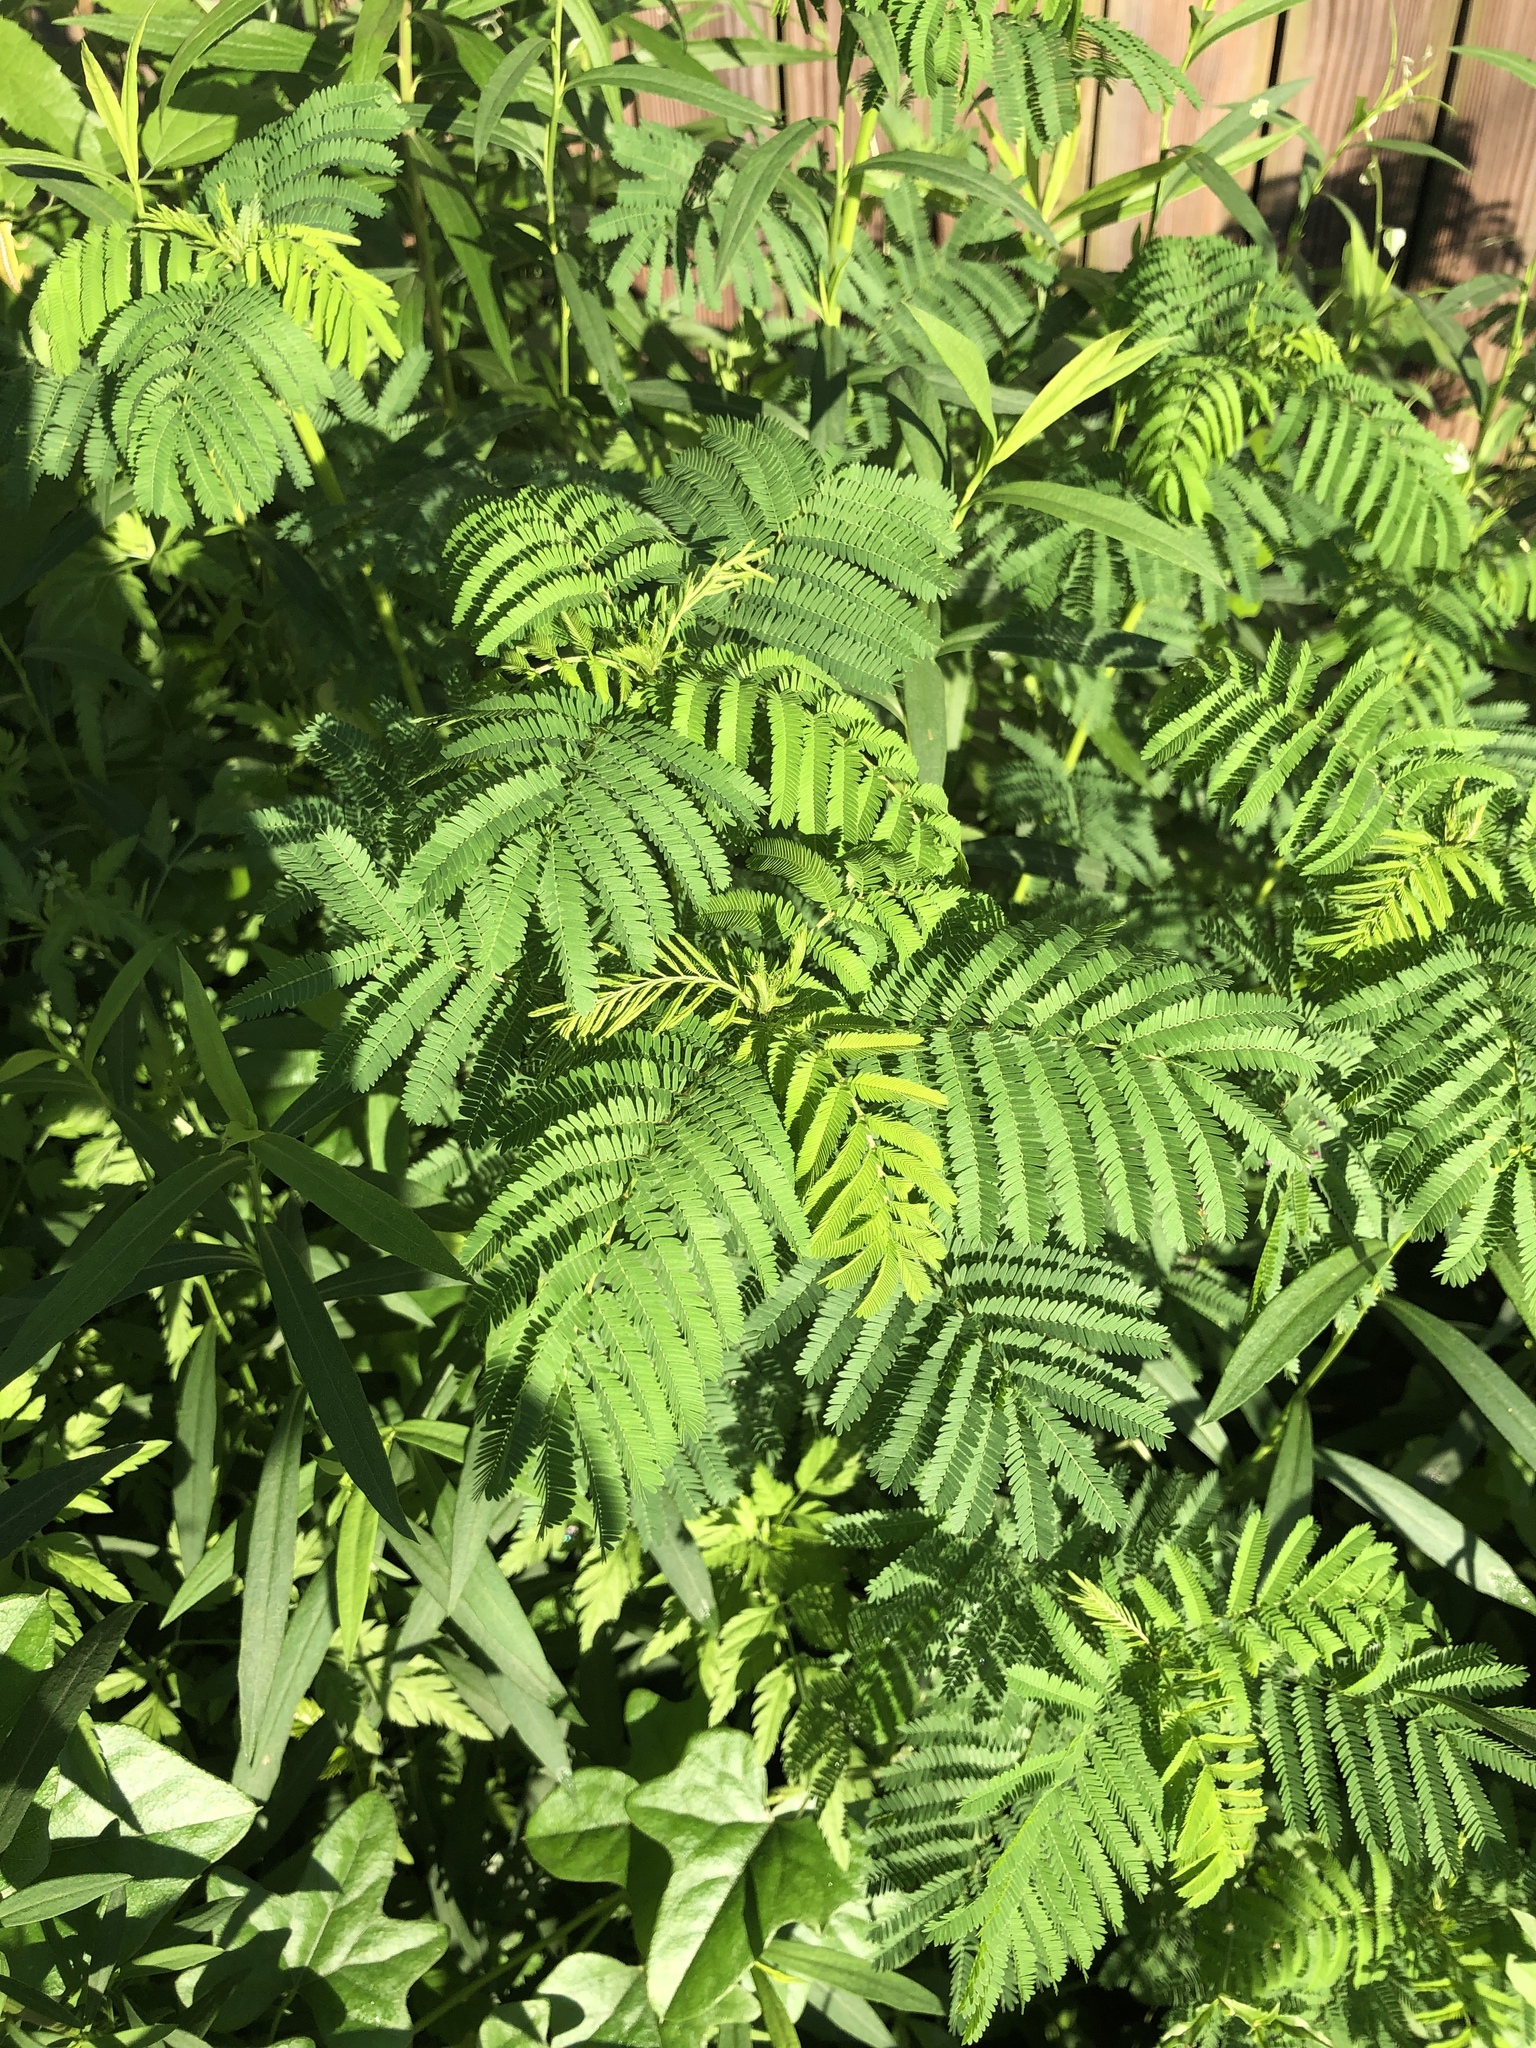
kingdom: Plantae
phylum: Tracheophyta
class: Magnoliopsida
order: Fabales
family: Fabaceae
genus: Desmanthus
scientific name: Desmanthus illinoensis
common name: Illinois bundle-flower
